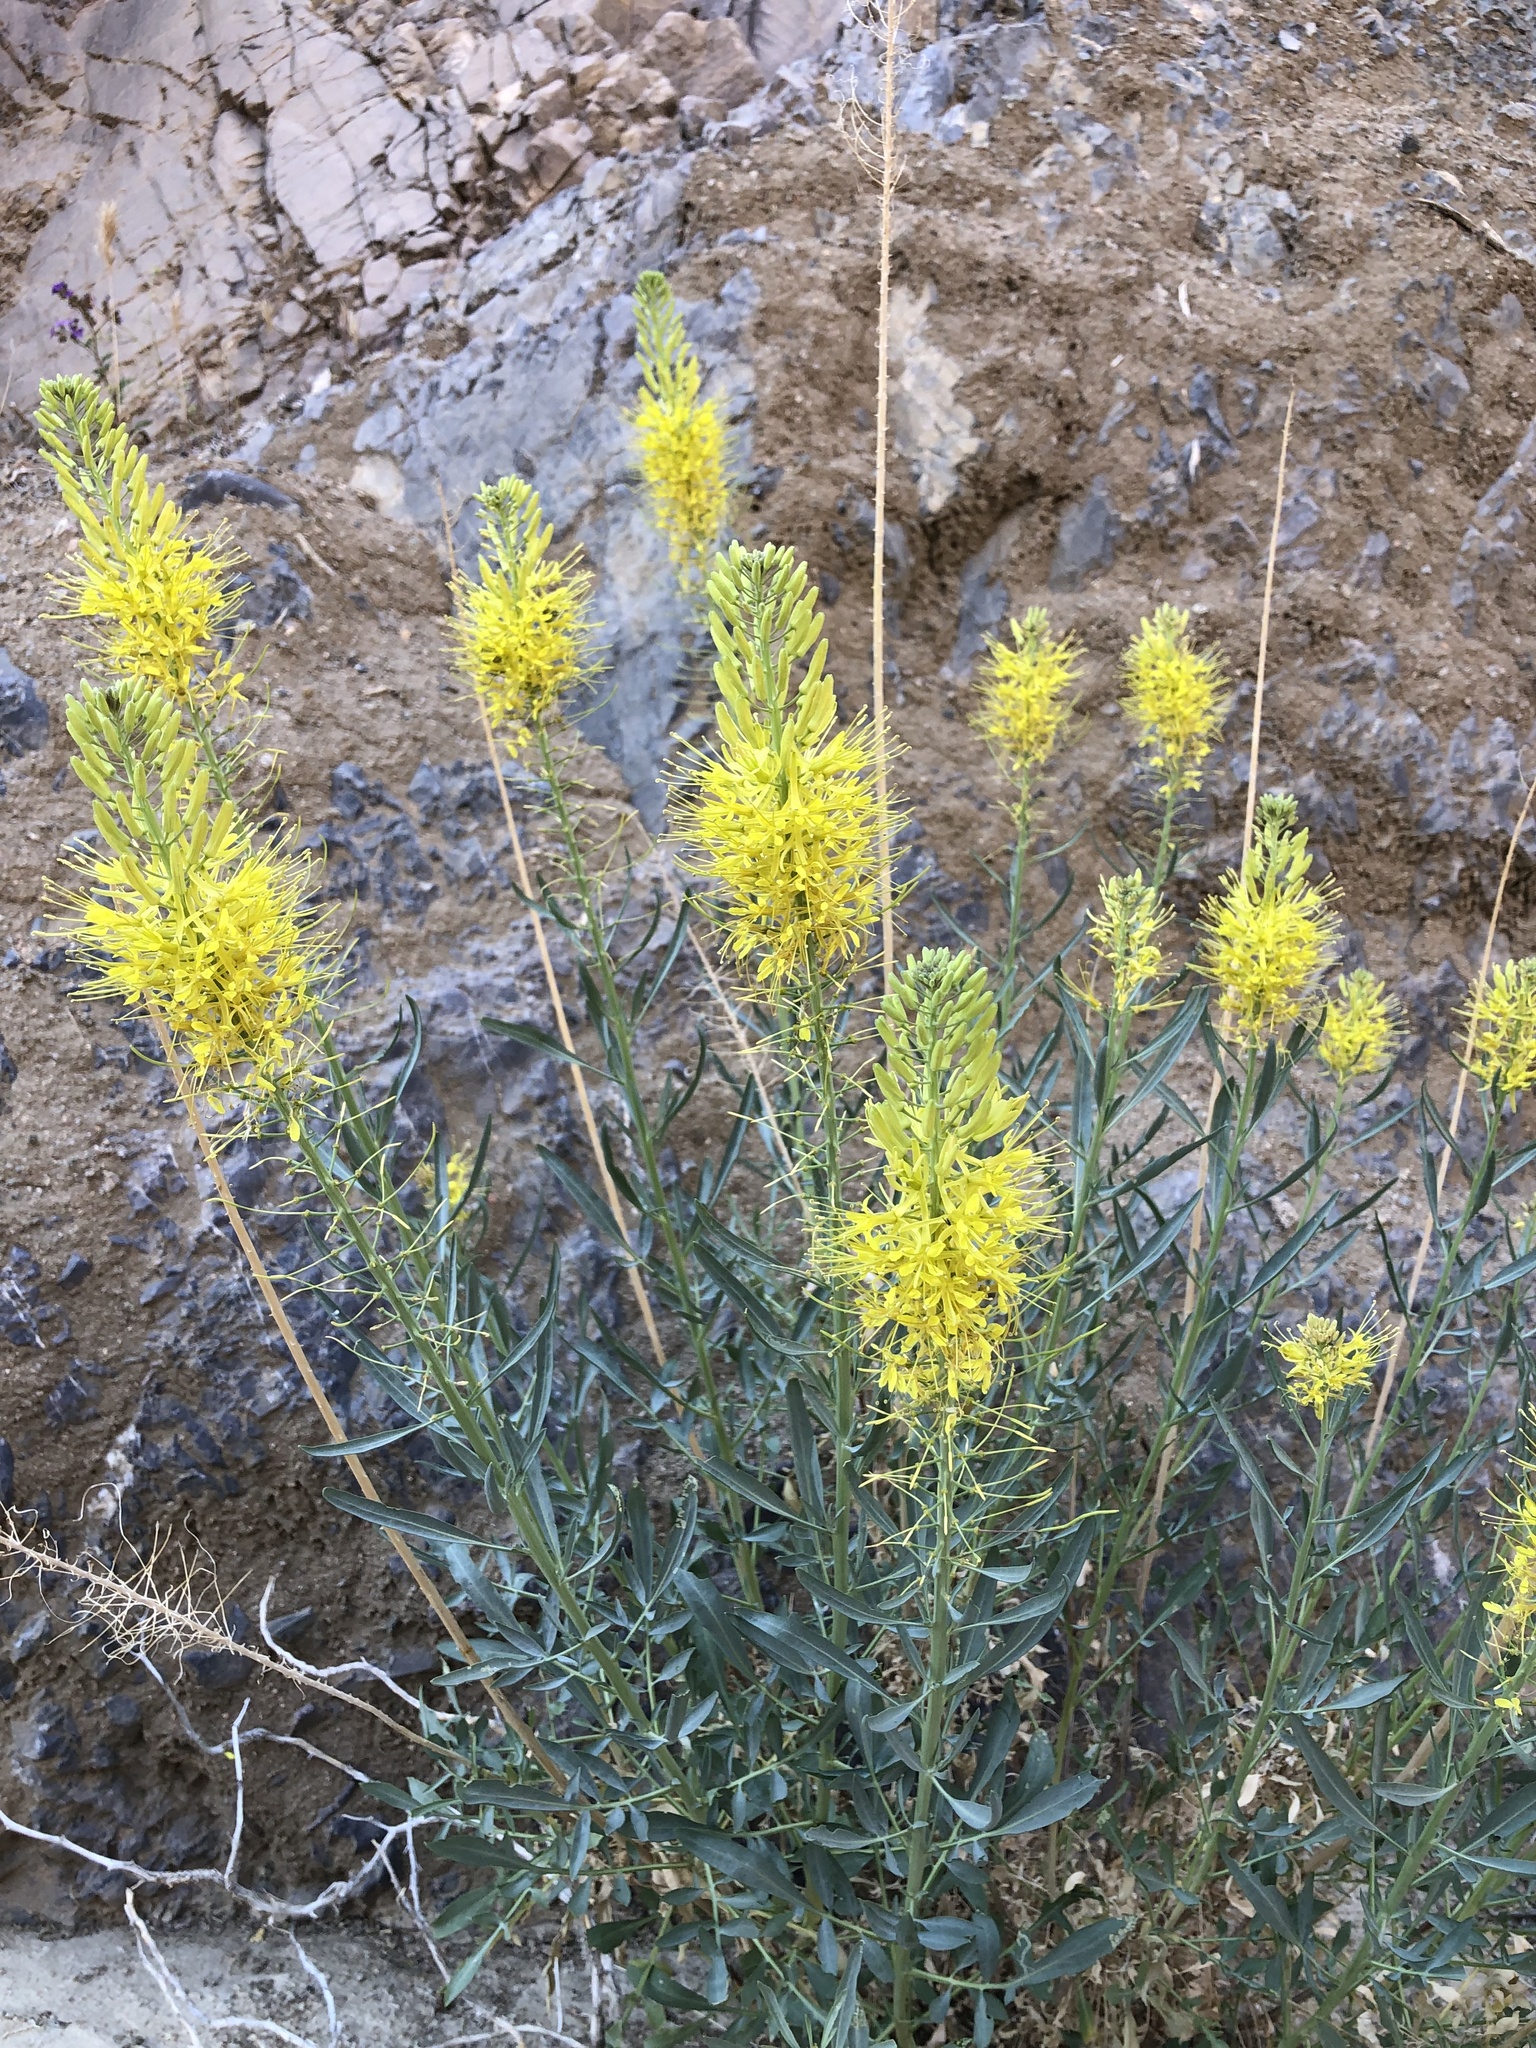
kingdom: Plantae
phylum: Tracheophyta
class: Magnoliopsida
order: Brassicales
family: Brassicaceae
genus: Stanleya
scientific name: Stanleya pinnata
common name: Prince's-plume
